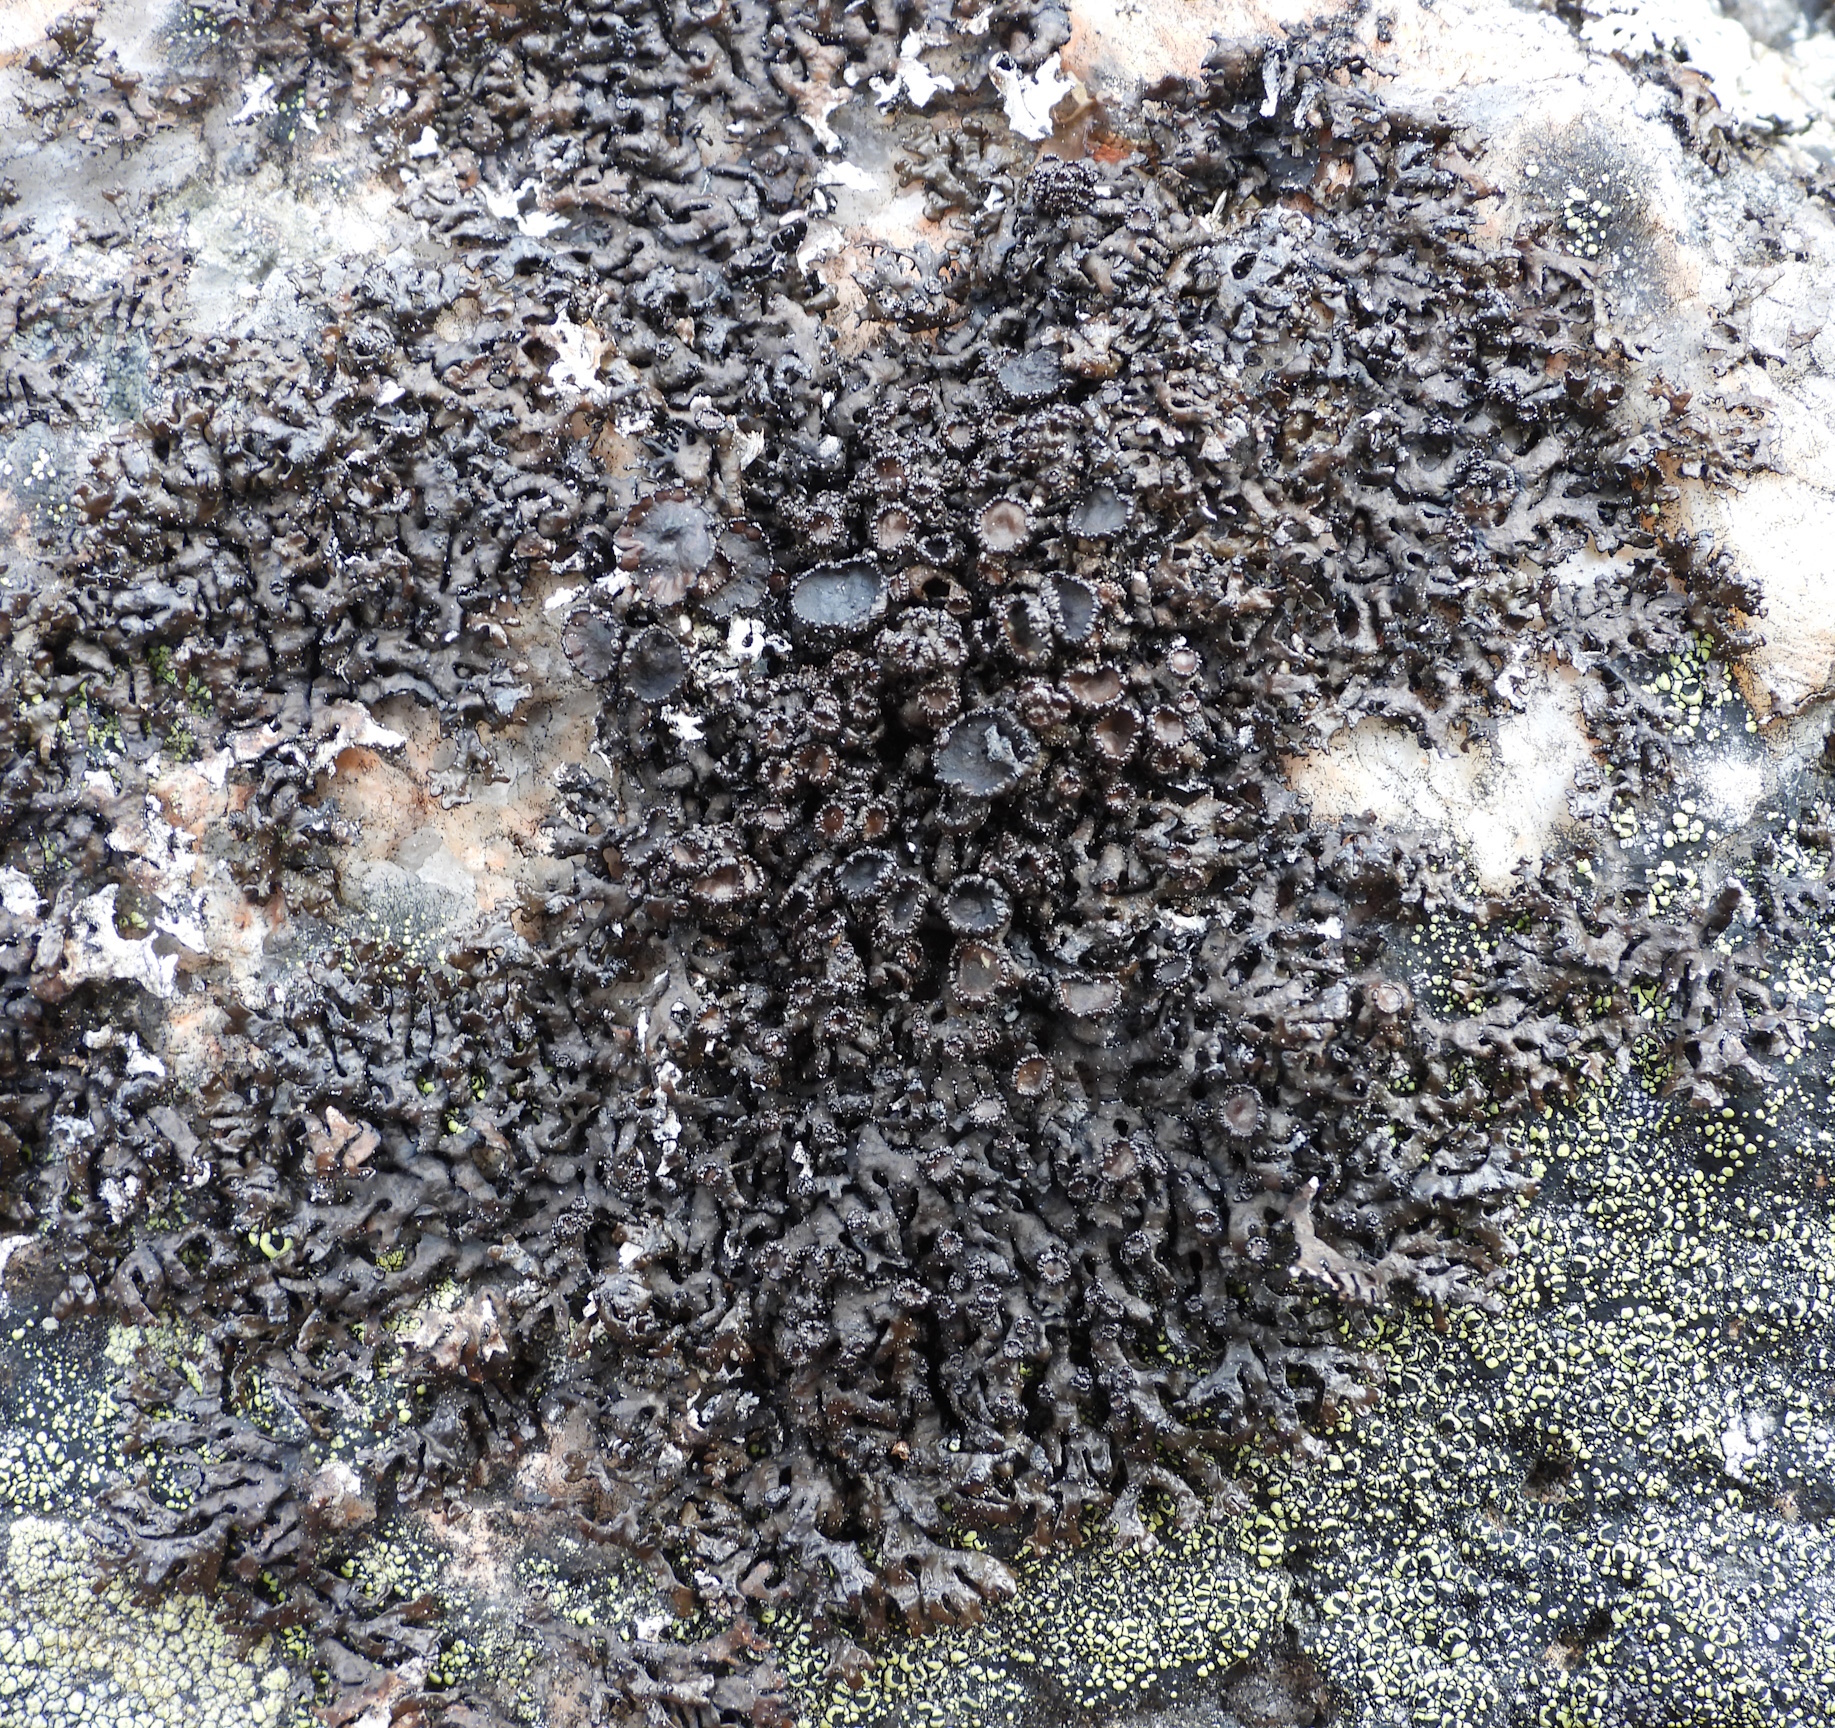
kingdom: Fungi
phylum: Ascomycota
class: Lecanoromycetes
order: Lecanorales
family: Parmeliaceae
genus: Melanelia
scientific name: Melanelia stygia
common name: Alpine camouflage lichen
